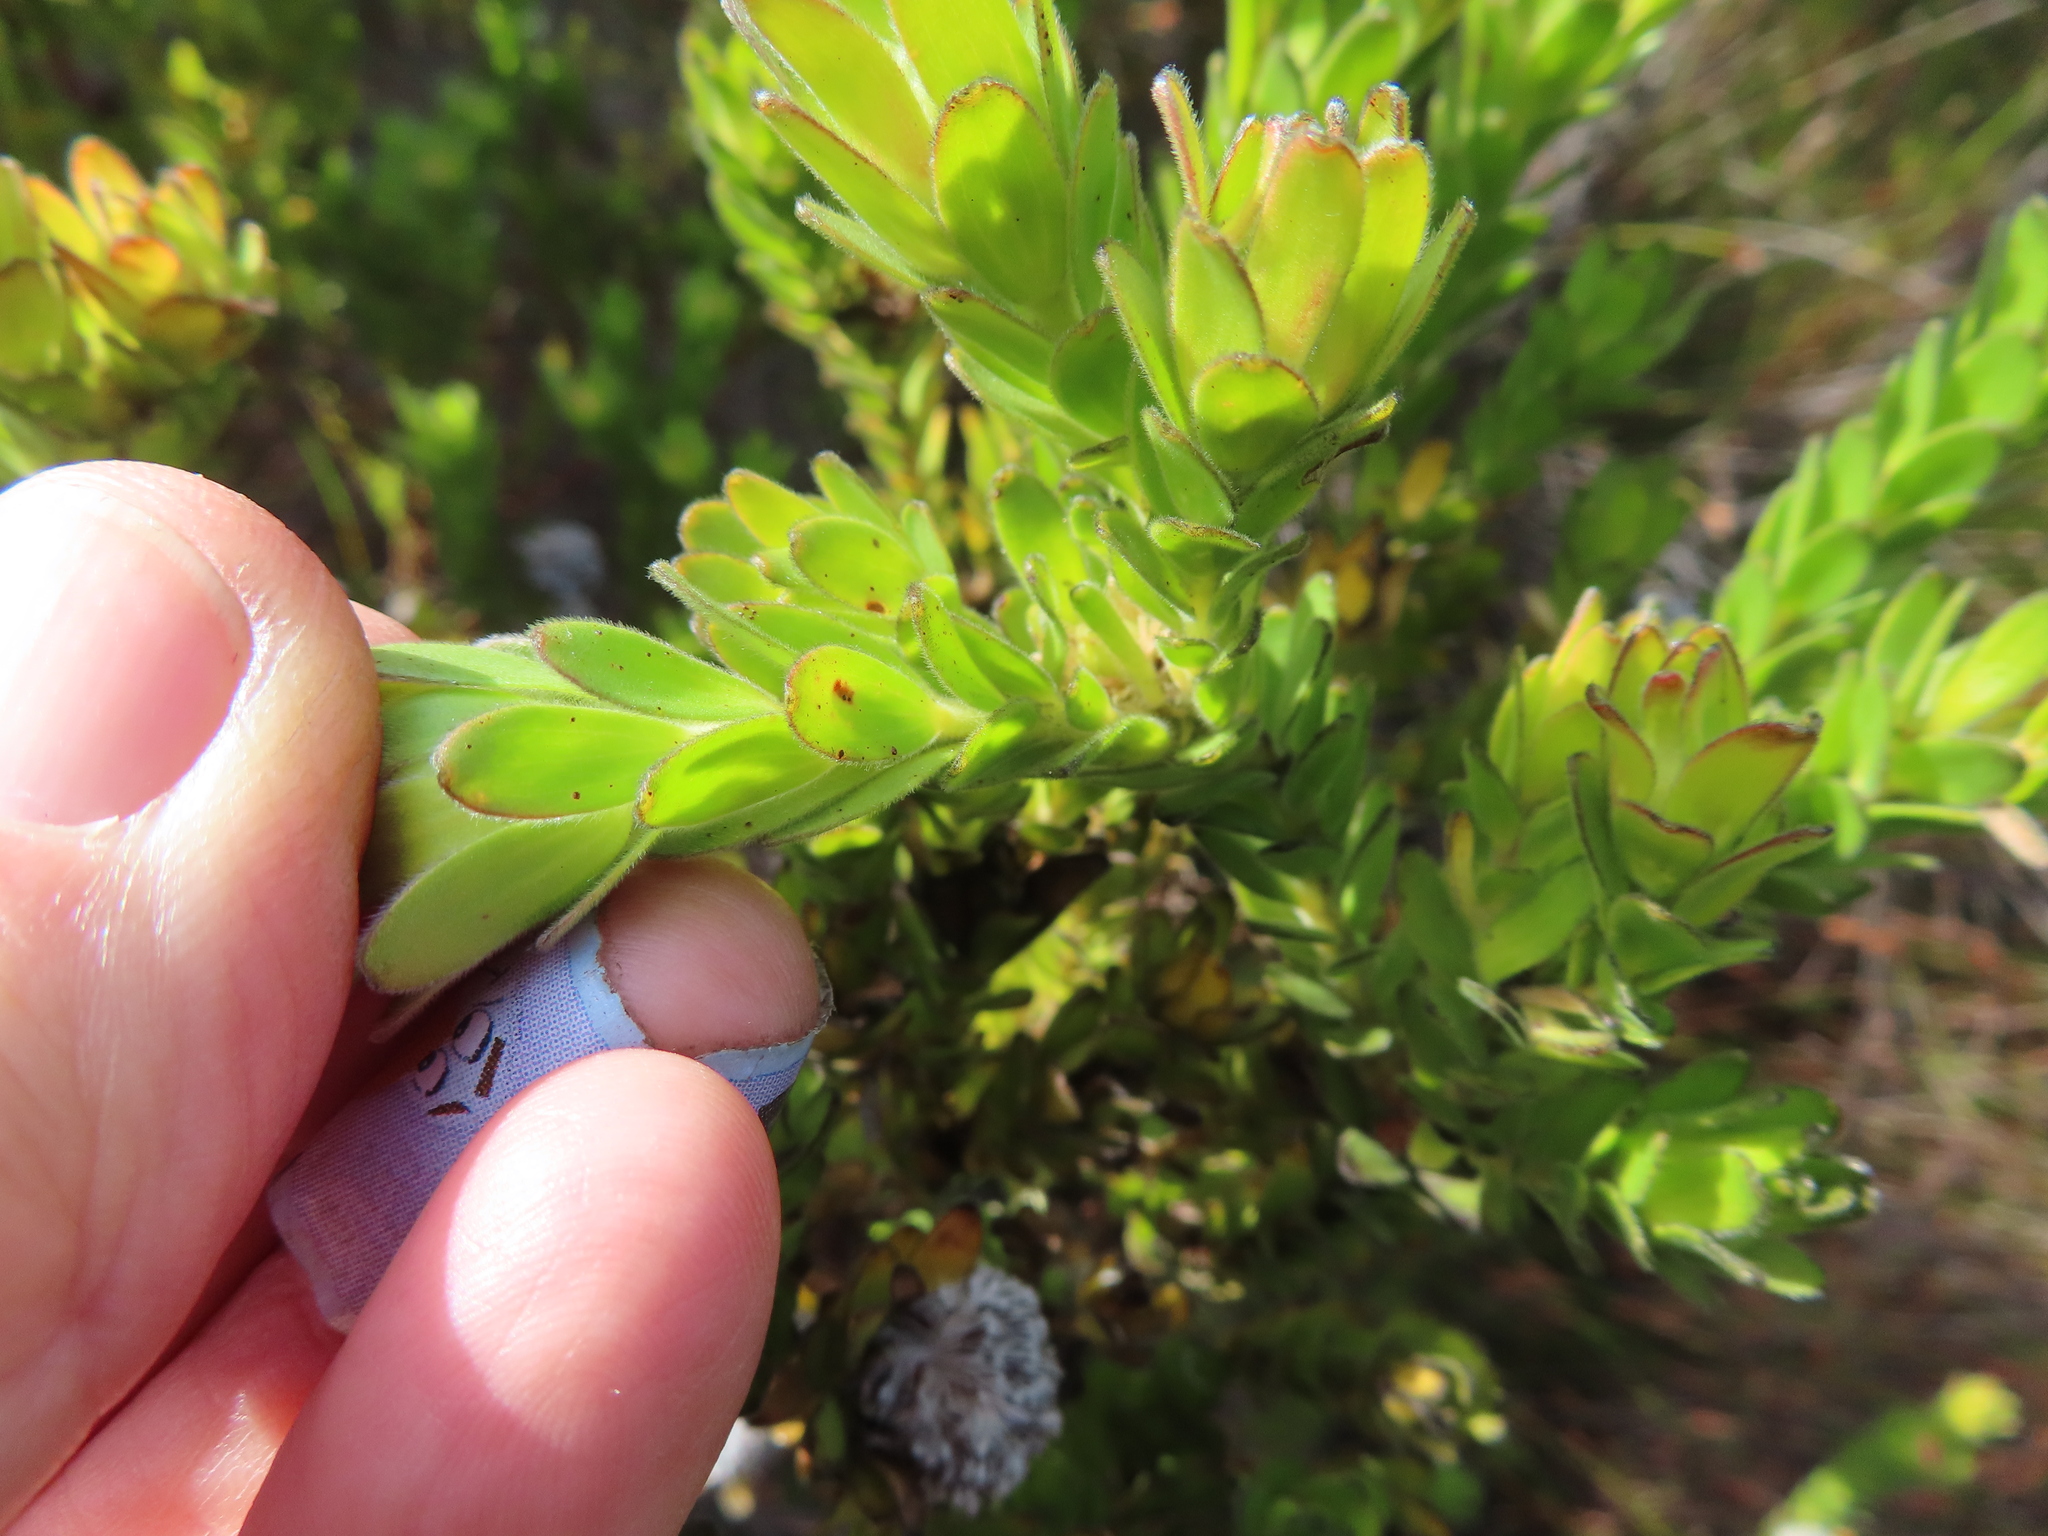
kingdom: Plantae
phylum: Tracheophyta
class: Magnoliopsida
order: Proteales
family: Proteaceae
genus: Diastella
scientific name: Diastella thymelaeoides
